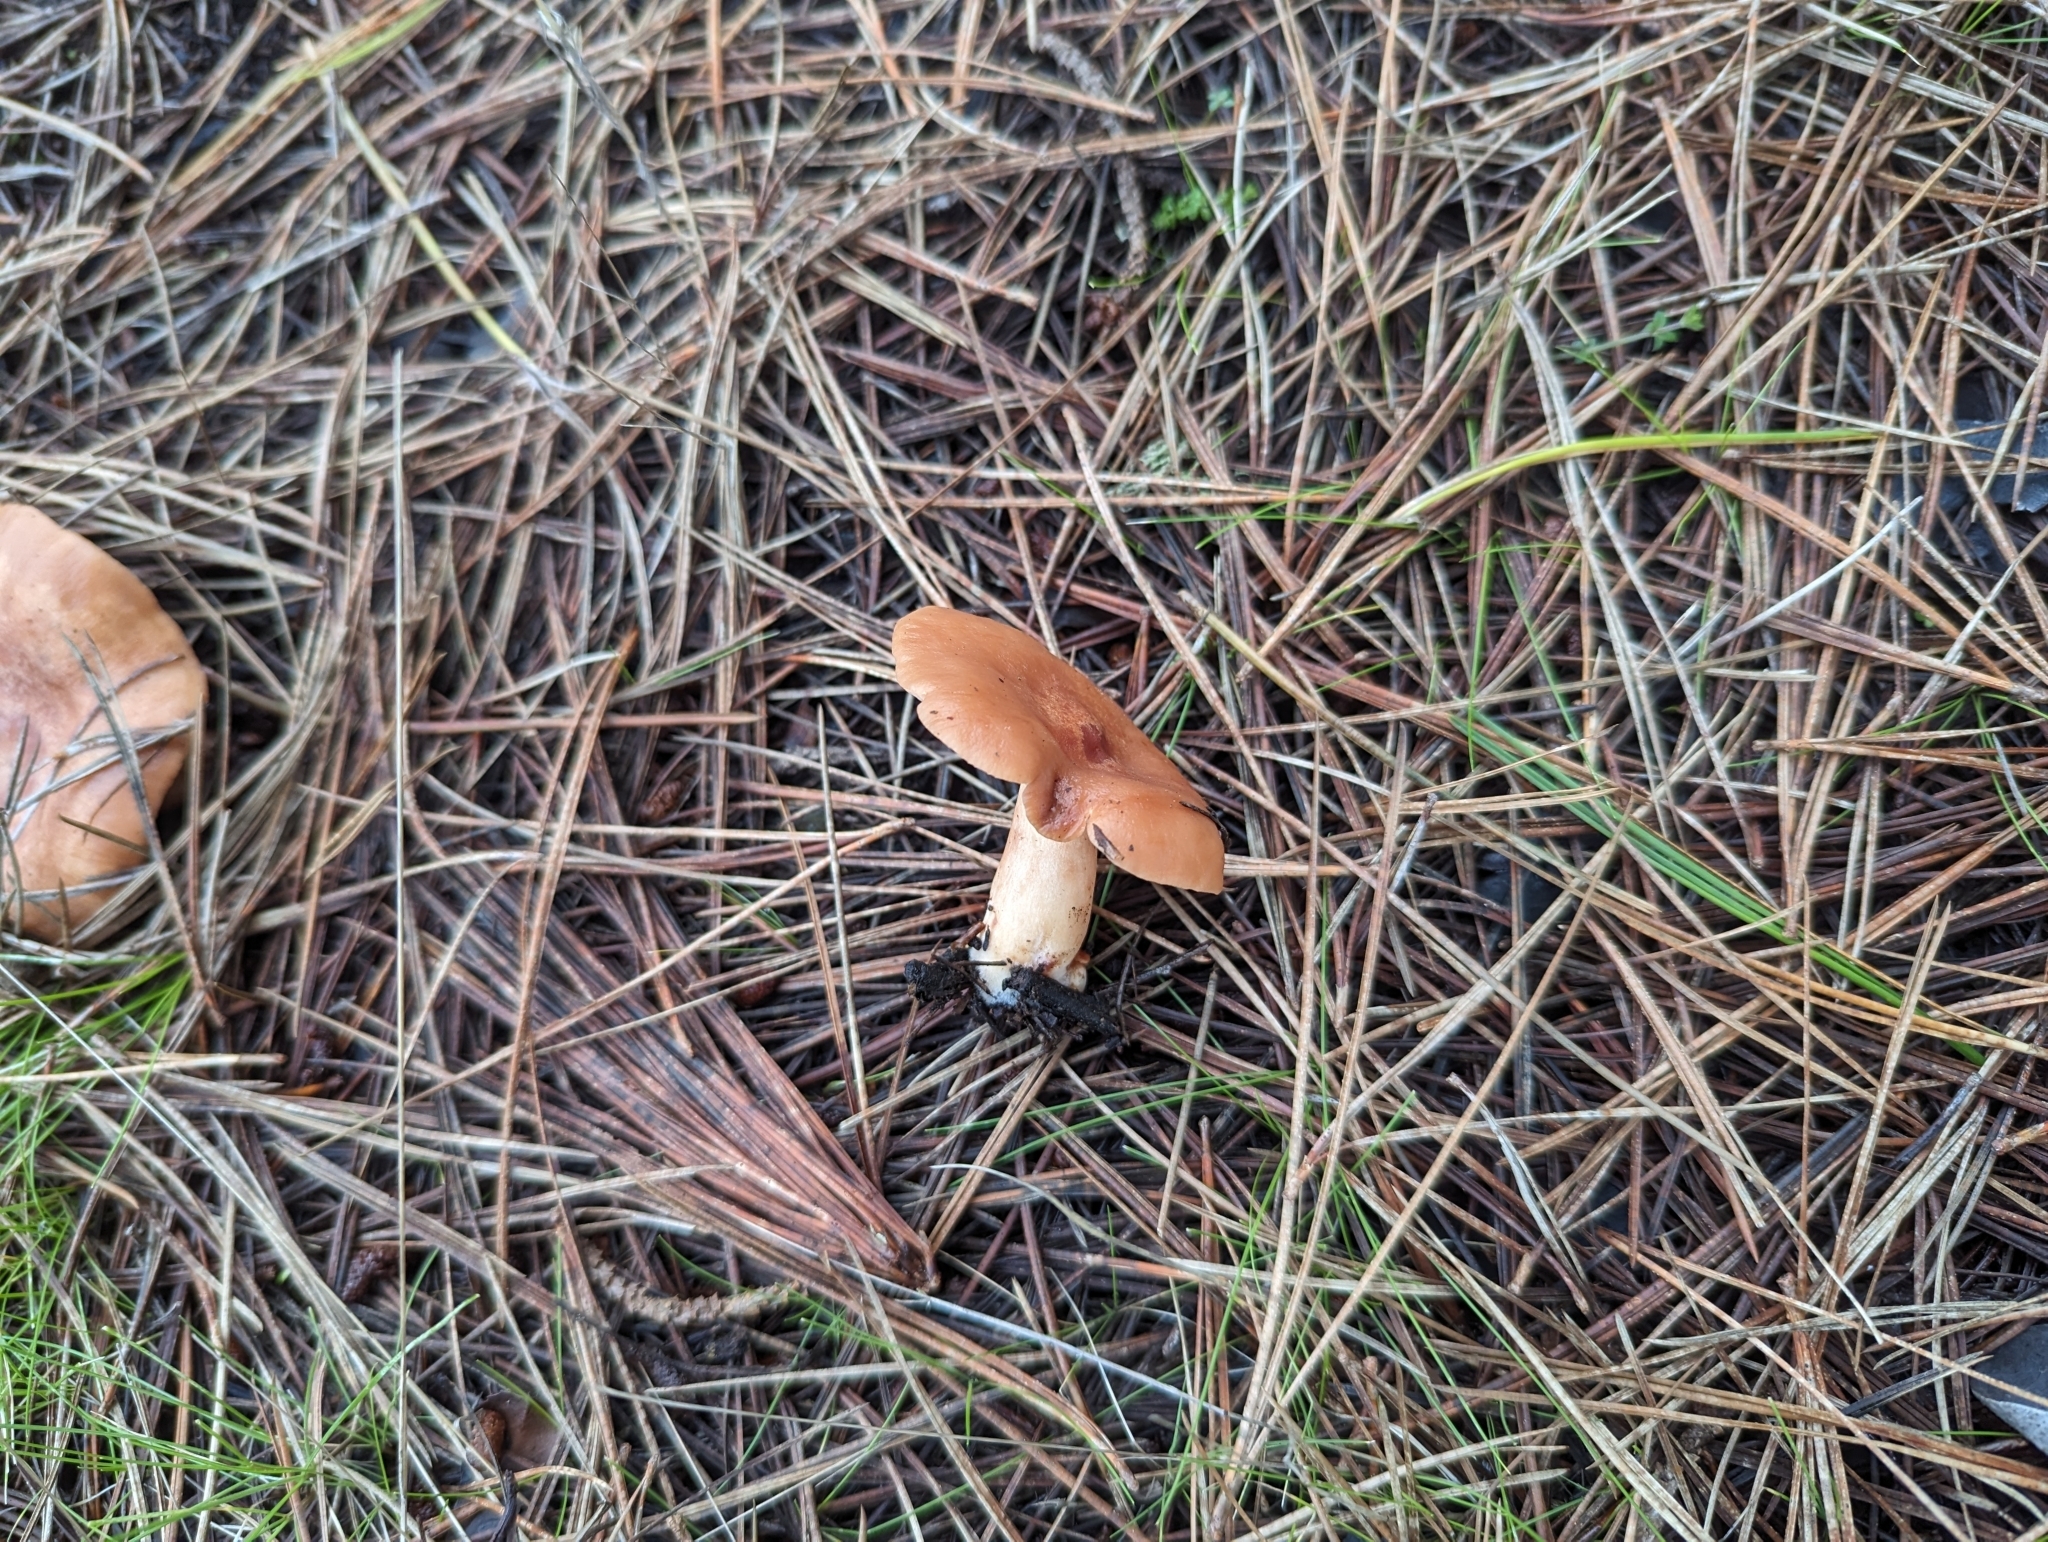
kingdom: Fungi
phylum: Basidiomycota
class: Agaricomycetes
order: Russulales
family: Russulaceae
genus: Lactarius
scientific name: Lactarius xanthogalactus
